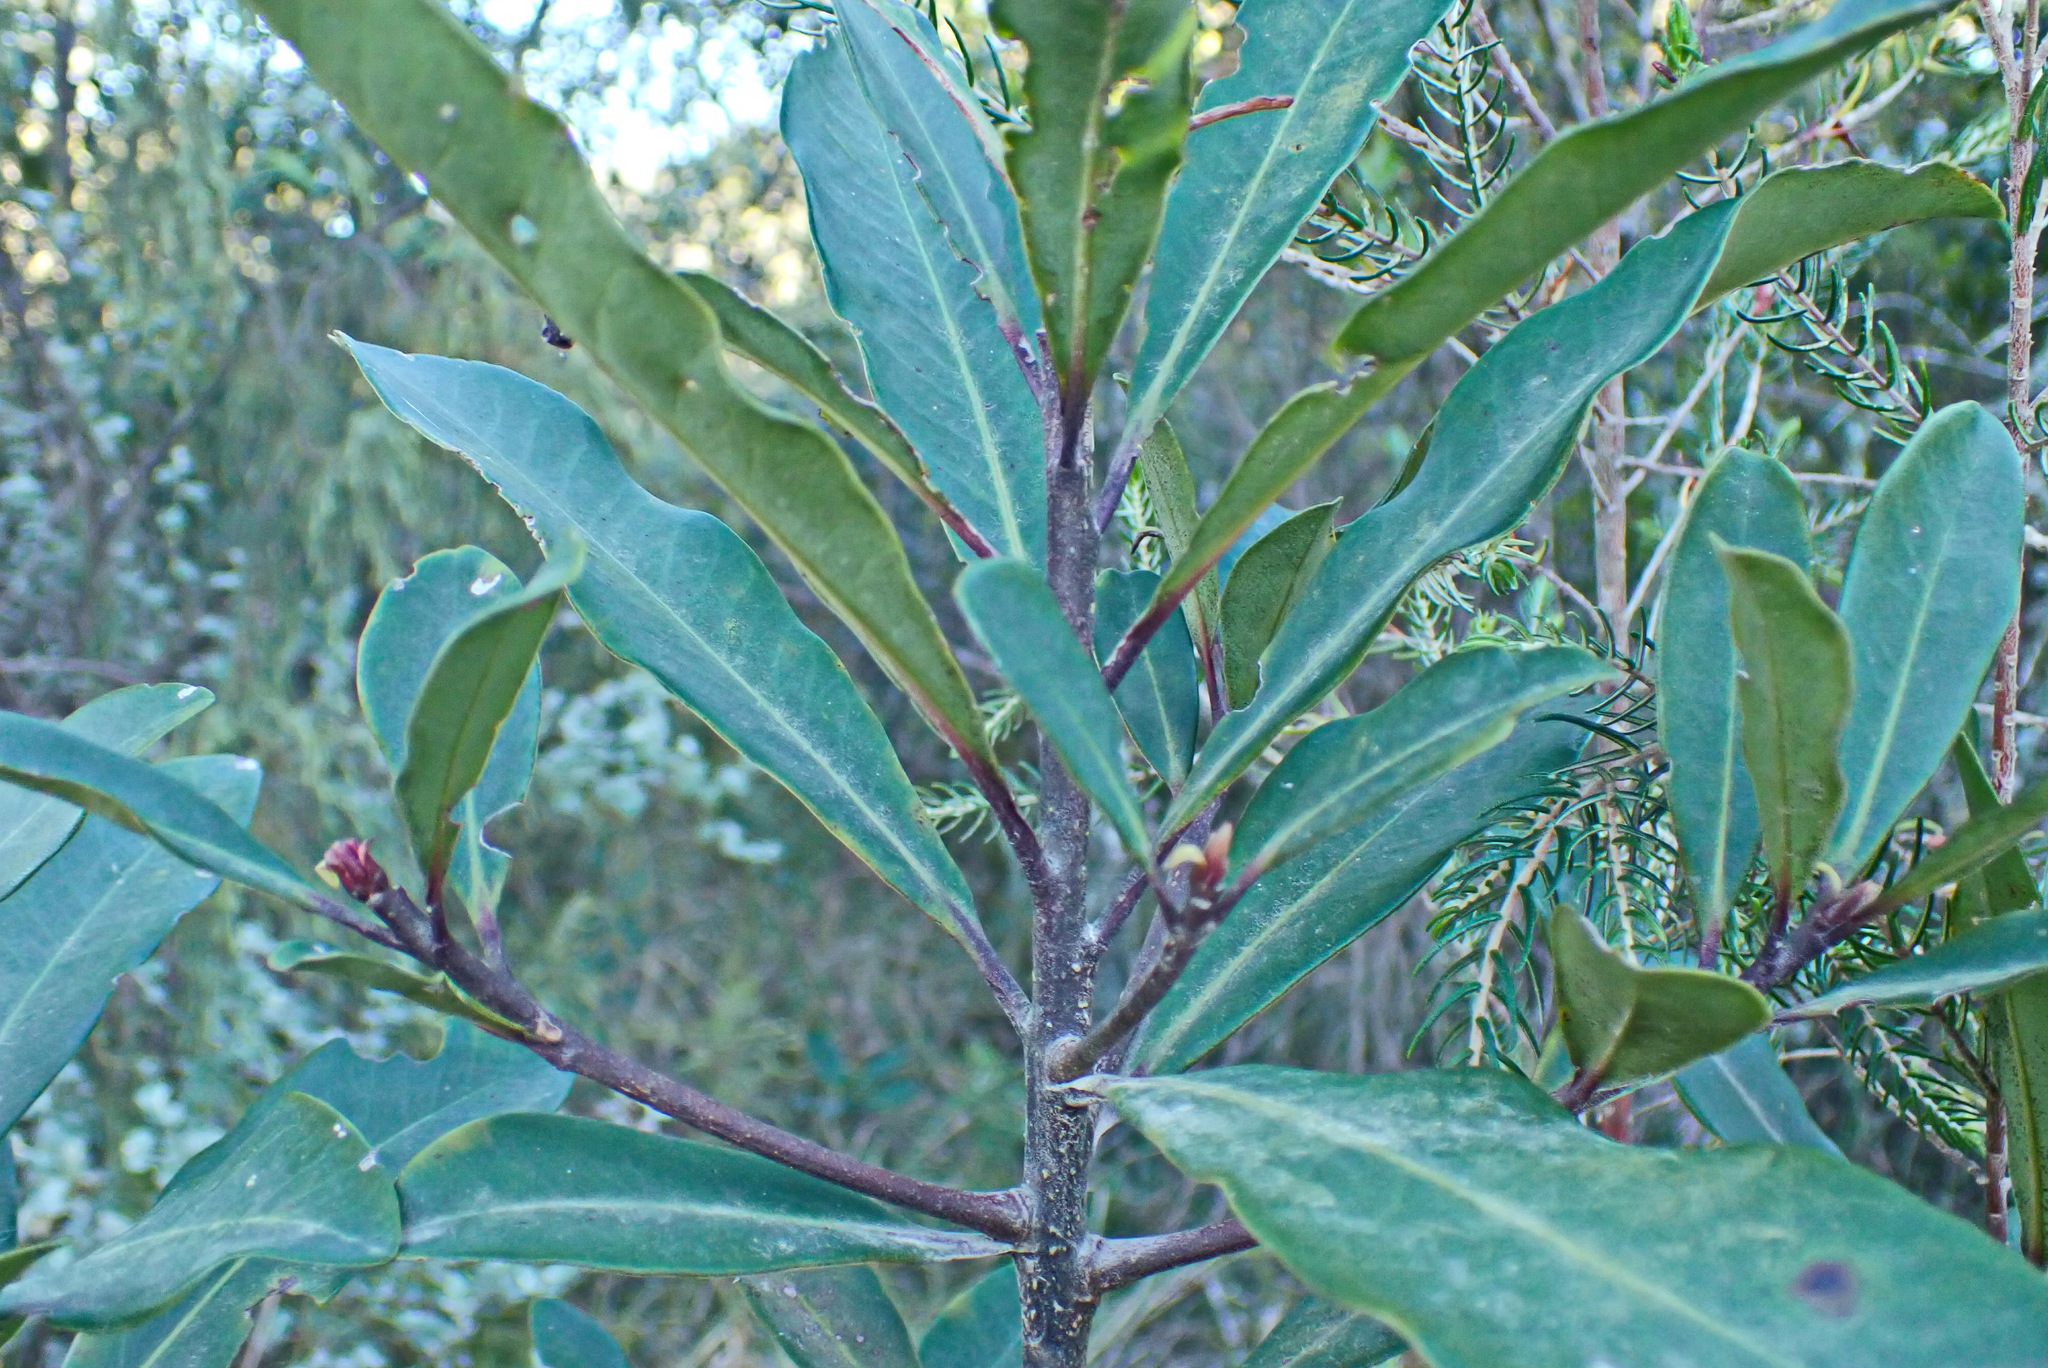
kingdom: Plantae
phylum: Tracheophyta
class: Magnoliopsida
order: Ericales
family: Primulaceae
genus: Myrsine
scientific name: Myrsine melanophloeos
